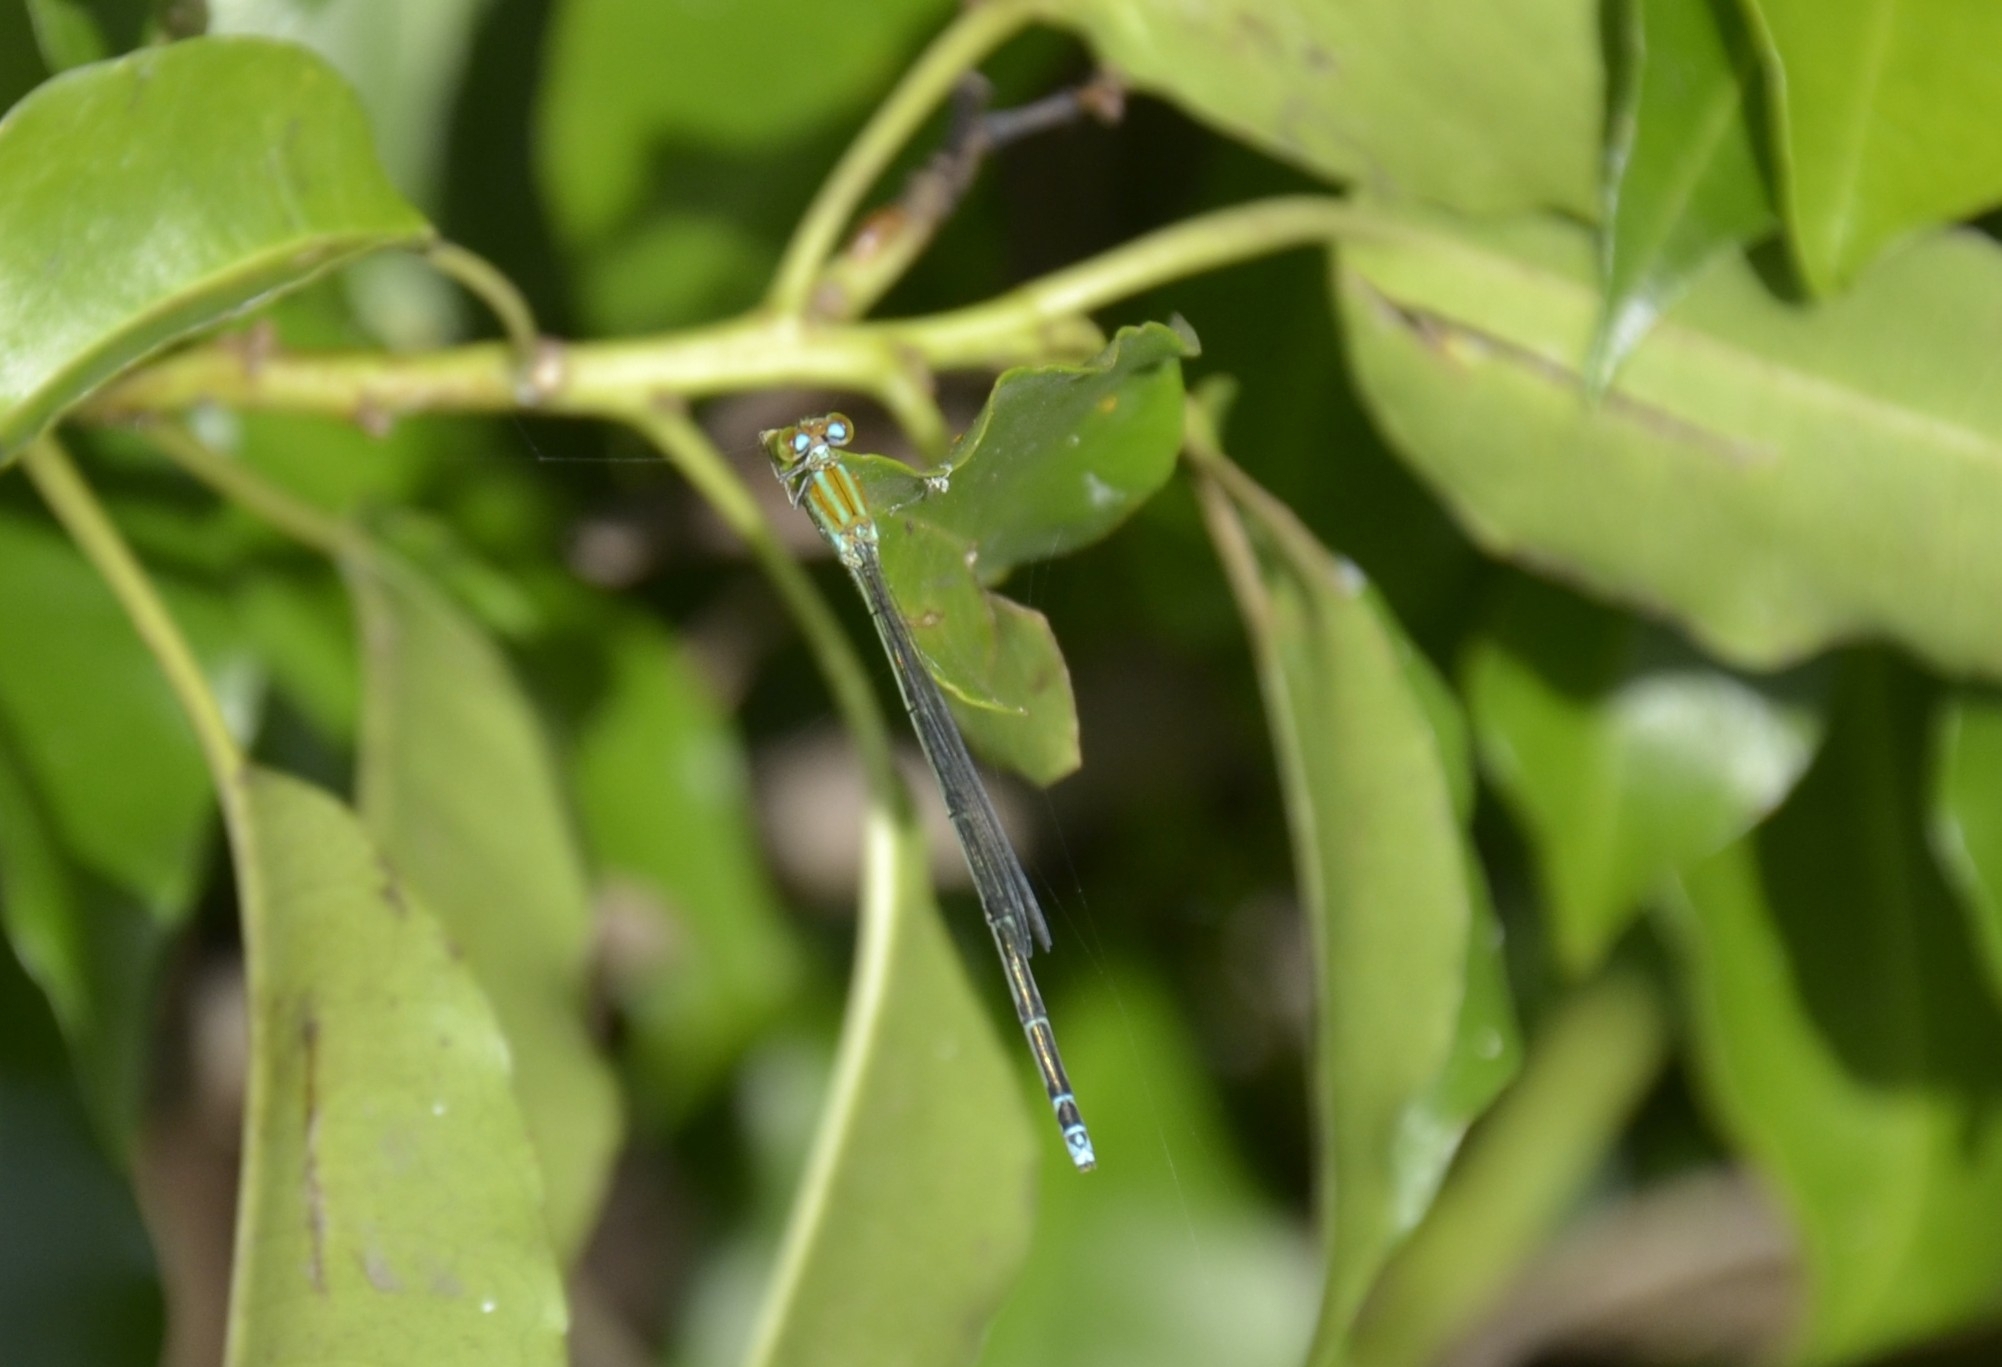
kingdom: Animalia
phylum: Arthropoda
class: Insecta
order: Odonata
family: Coenagrionidae
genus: Pseudagrion
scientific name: Pseudagrion microcephalum
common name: Blue riverdamsel
